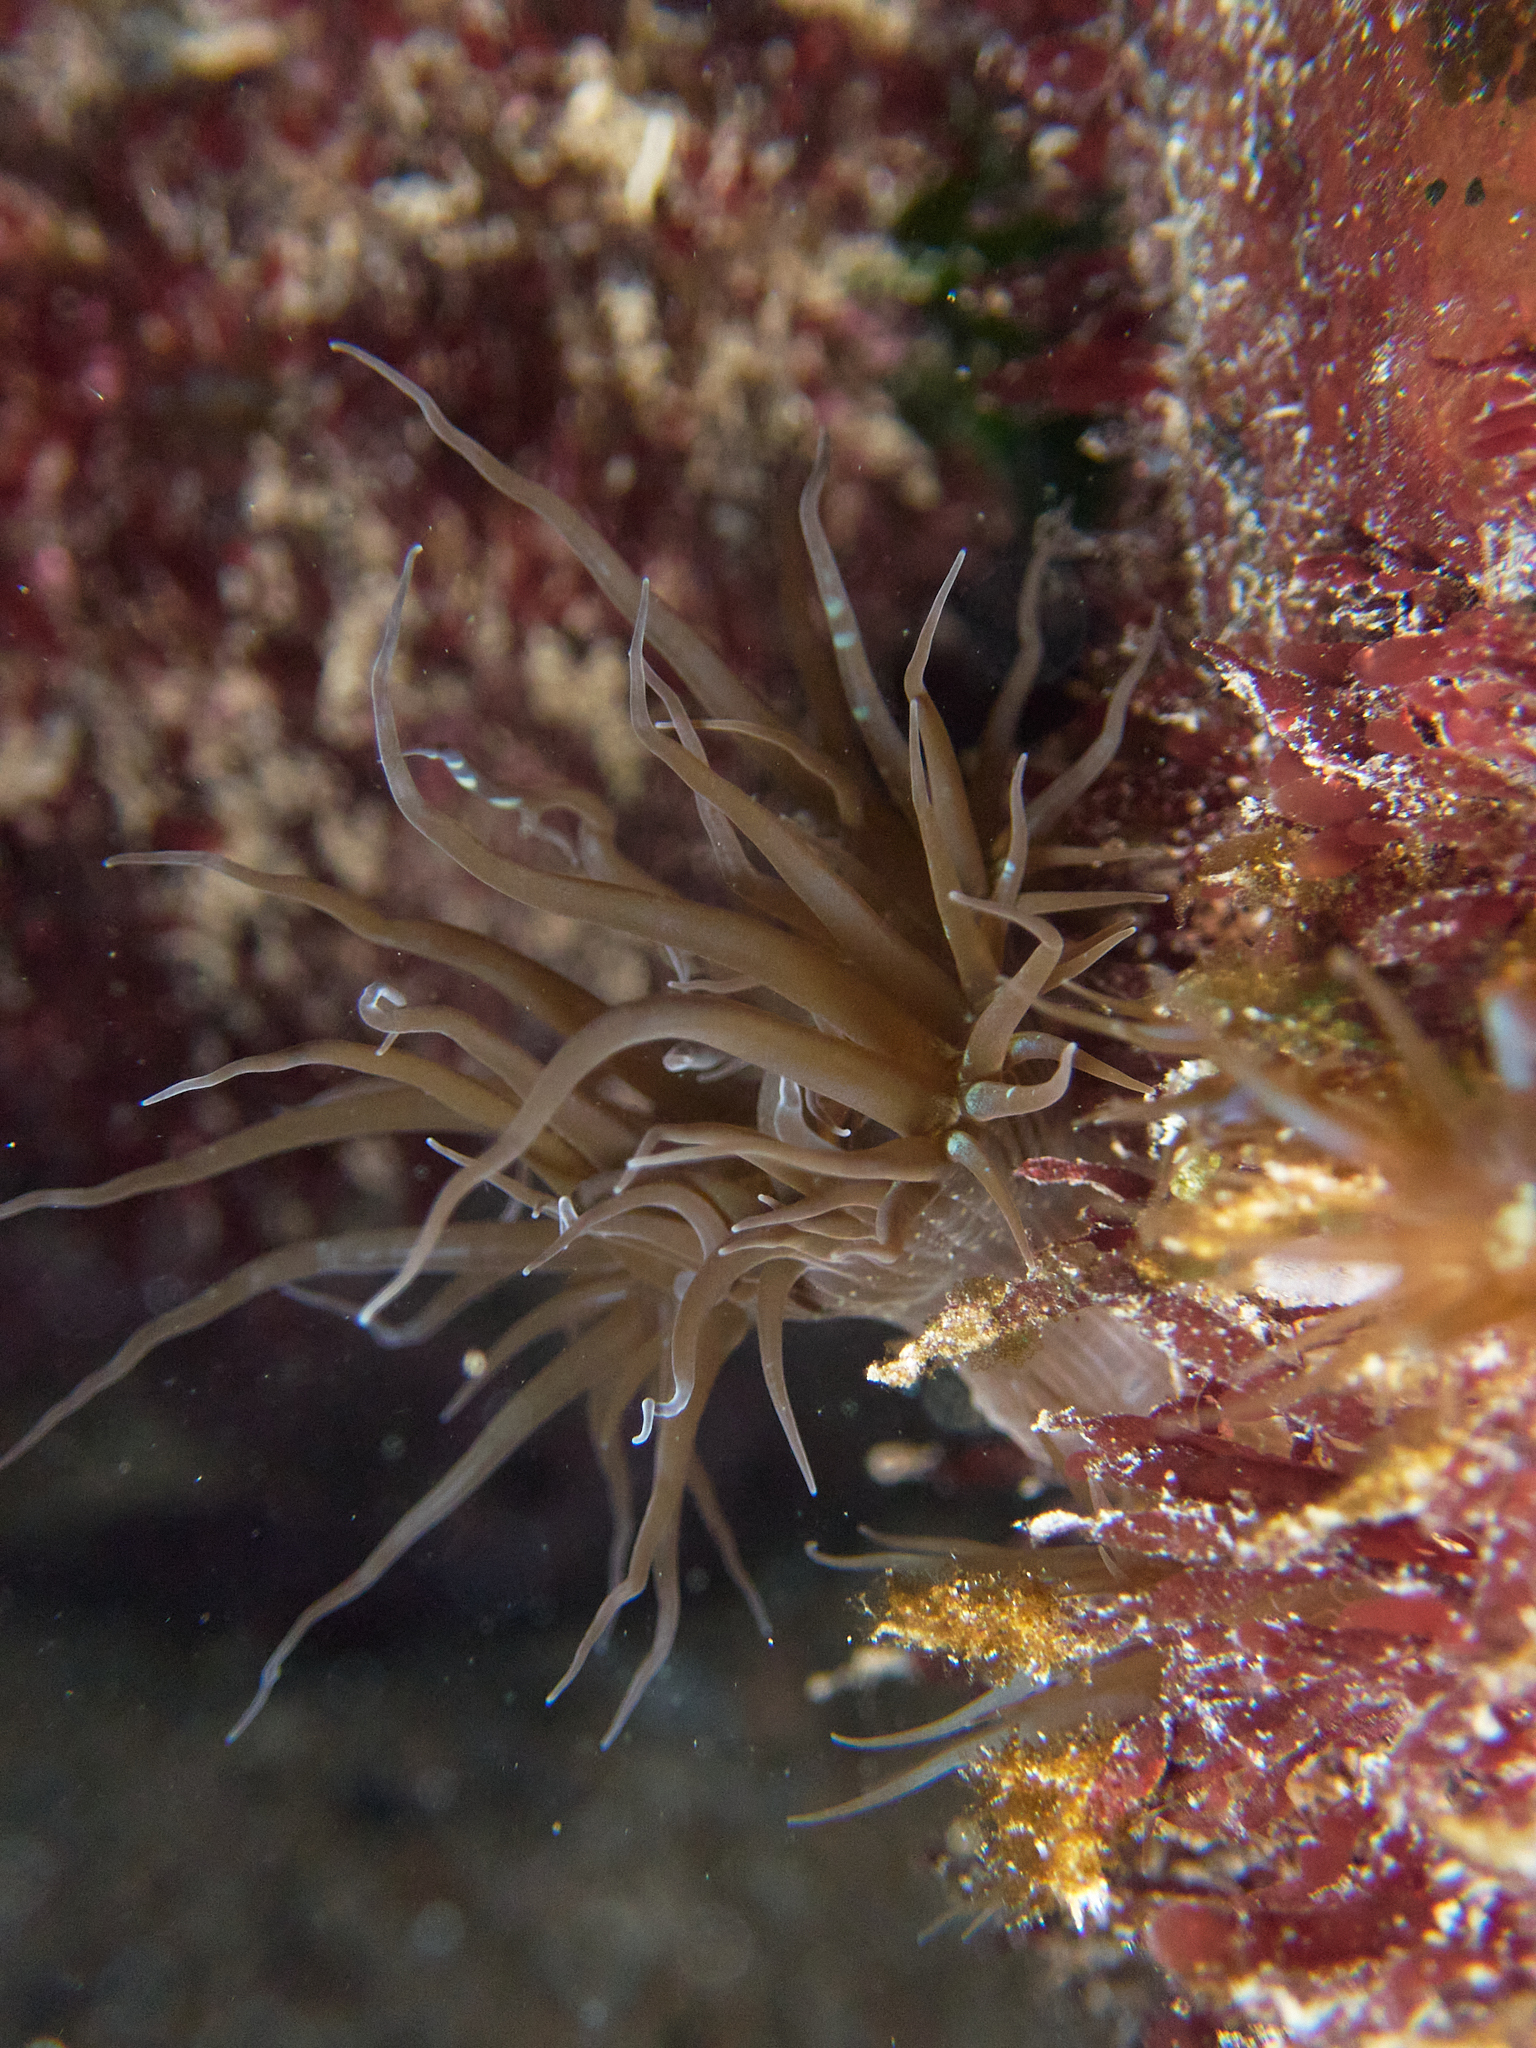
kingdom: Animalia
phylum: Cnidaria
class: Anthozoa
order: Actiniaria
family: Aiptasiidae
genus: Exaiptasia
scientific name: Exaiptasia diaphana
